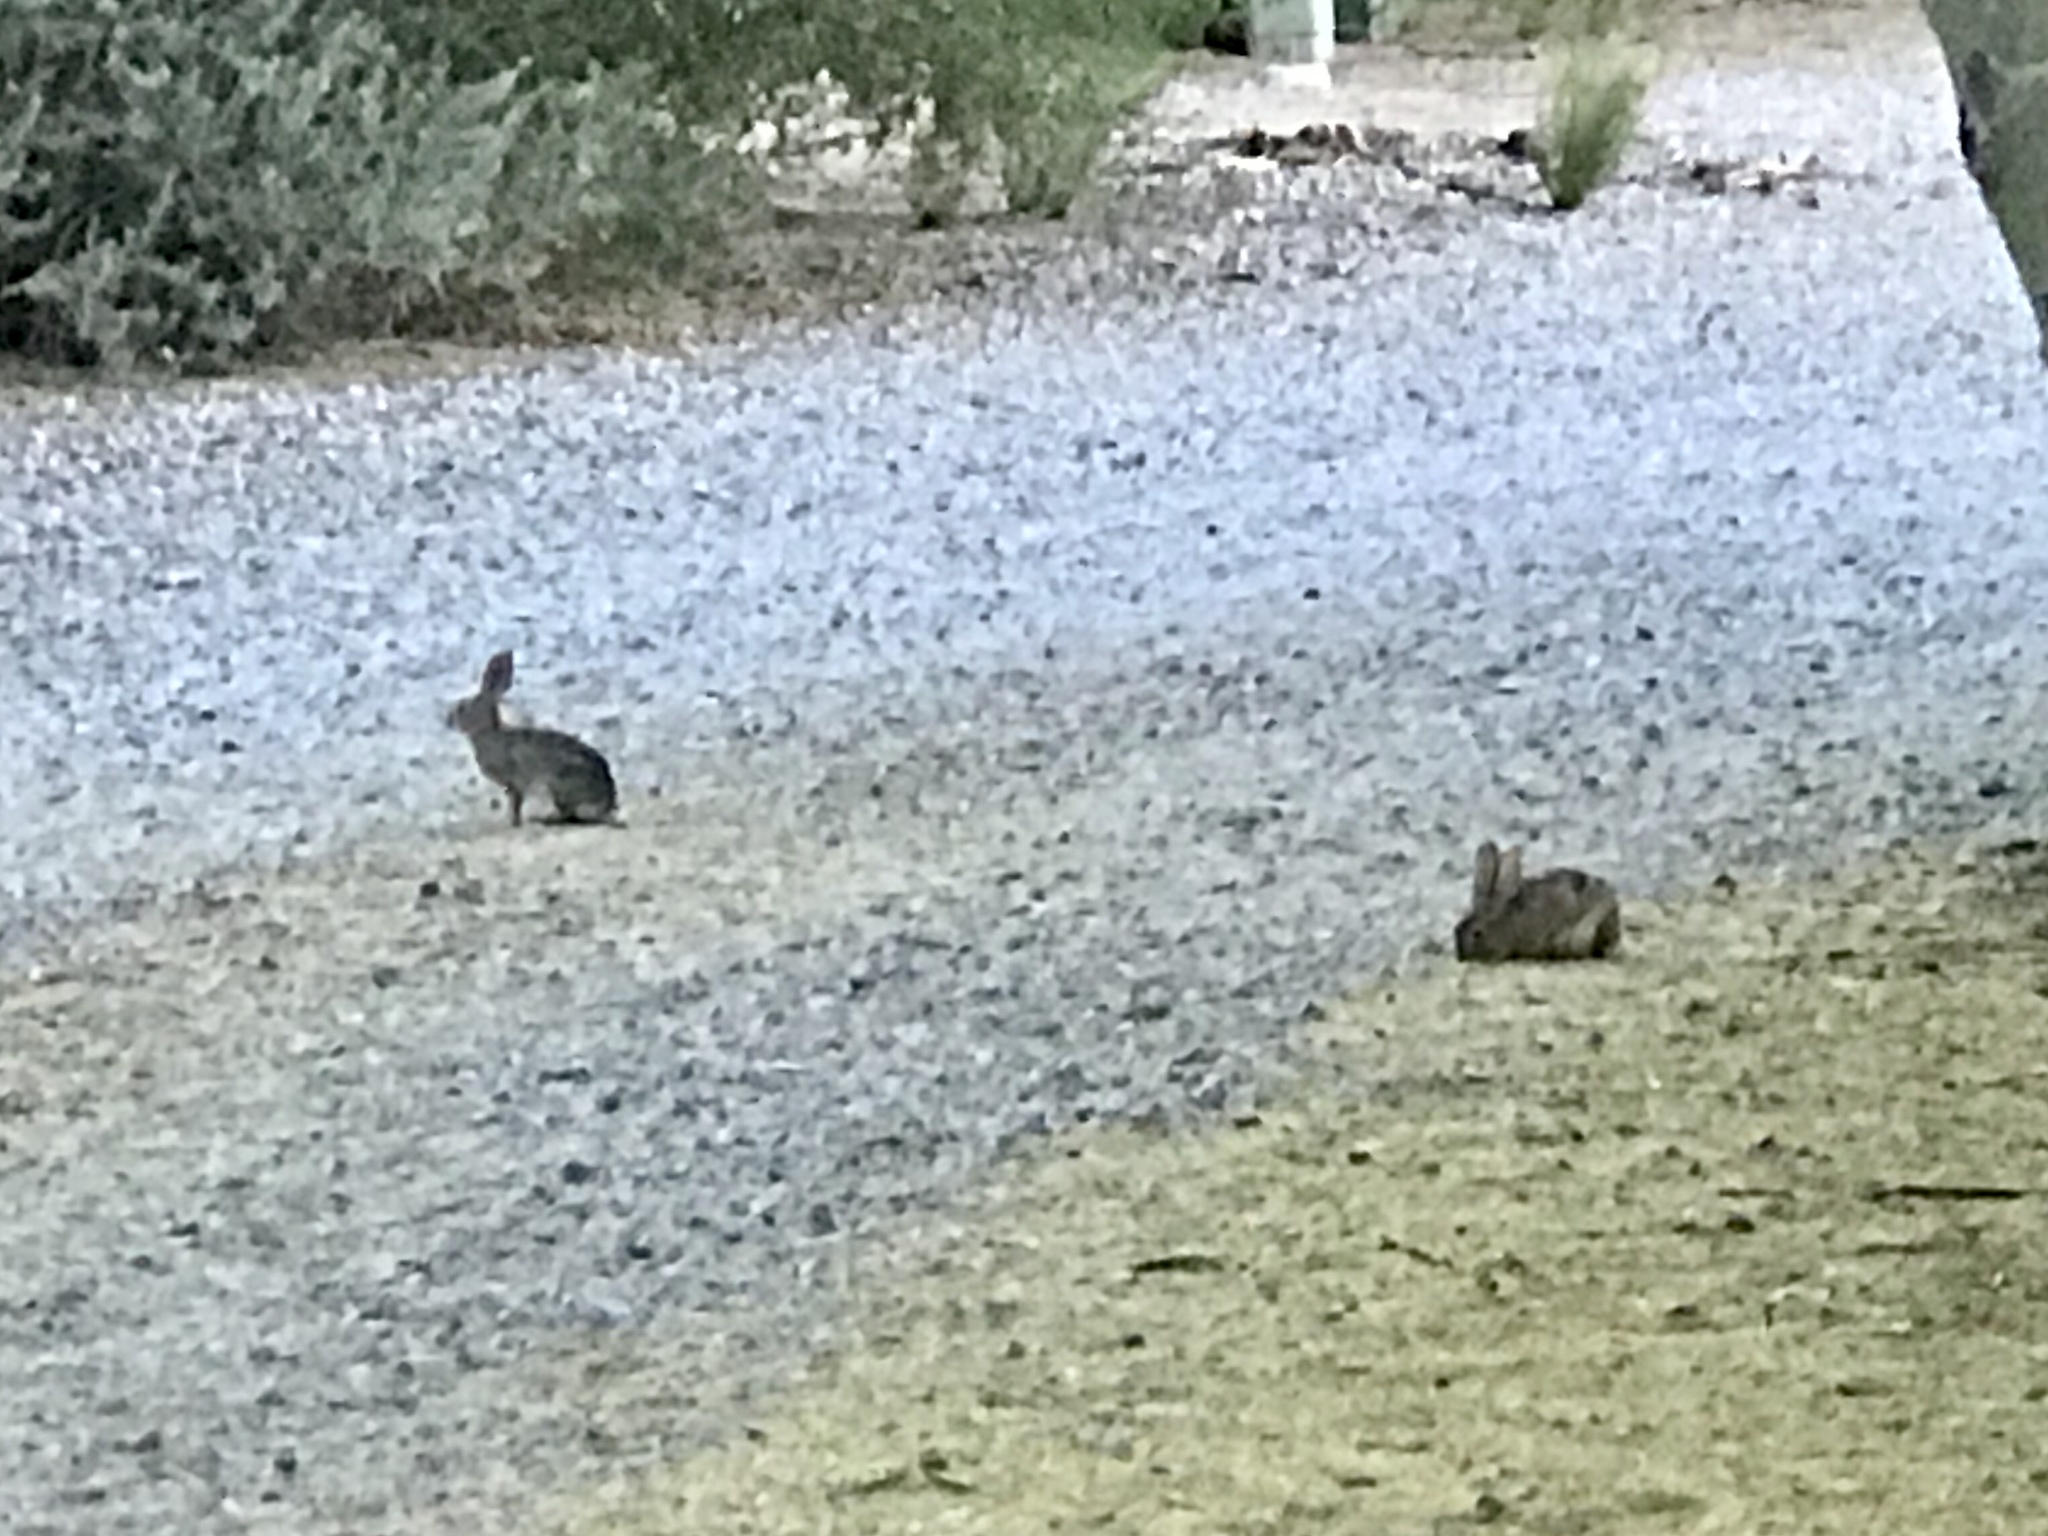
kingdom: Animalia
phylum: Chordata
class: Mammalia
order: Lagomorpha
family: Leporidae
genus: Sylvilagus
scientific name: Sylvilagus audubonii
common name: Desert cottontail
